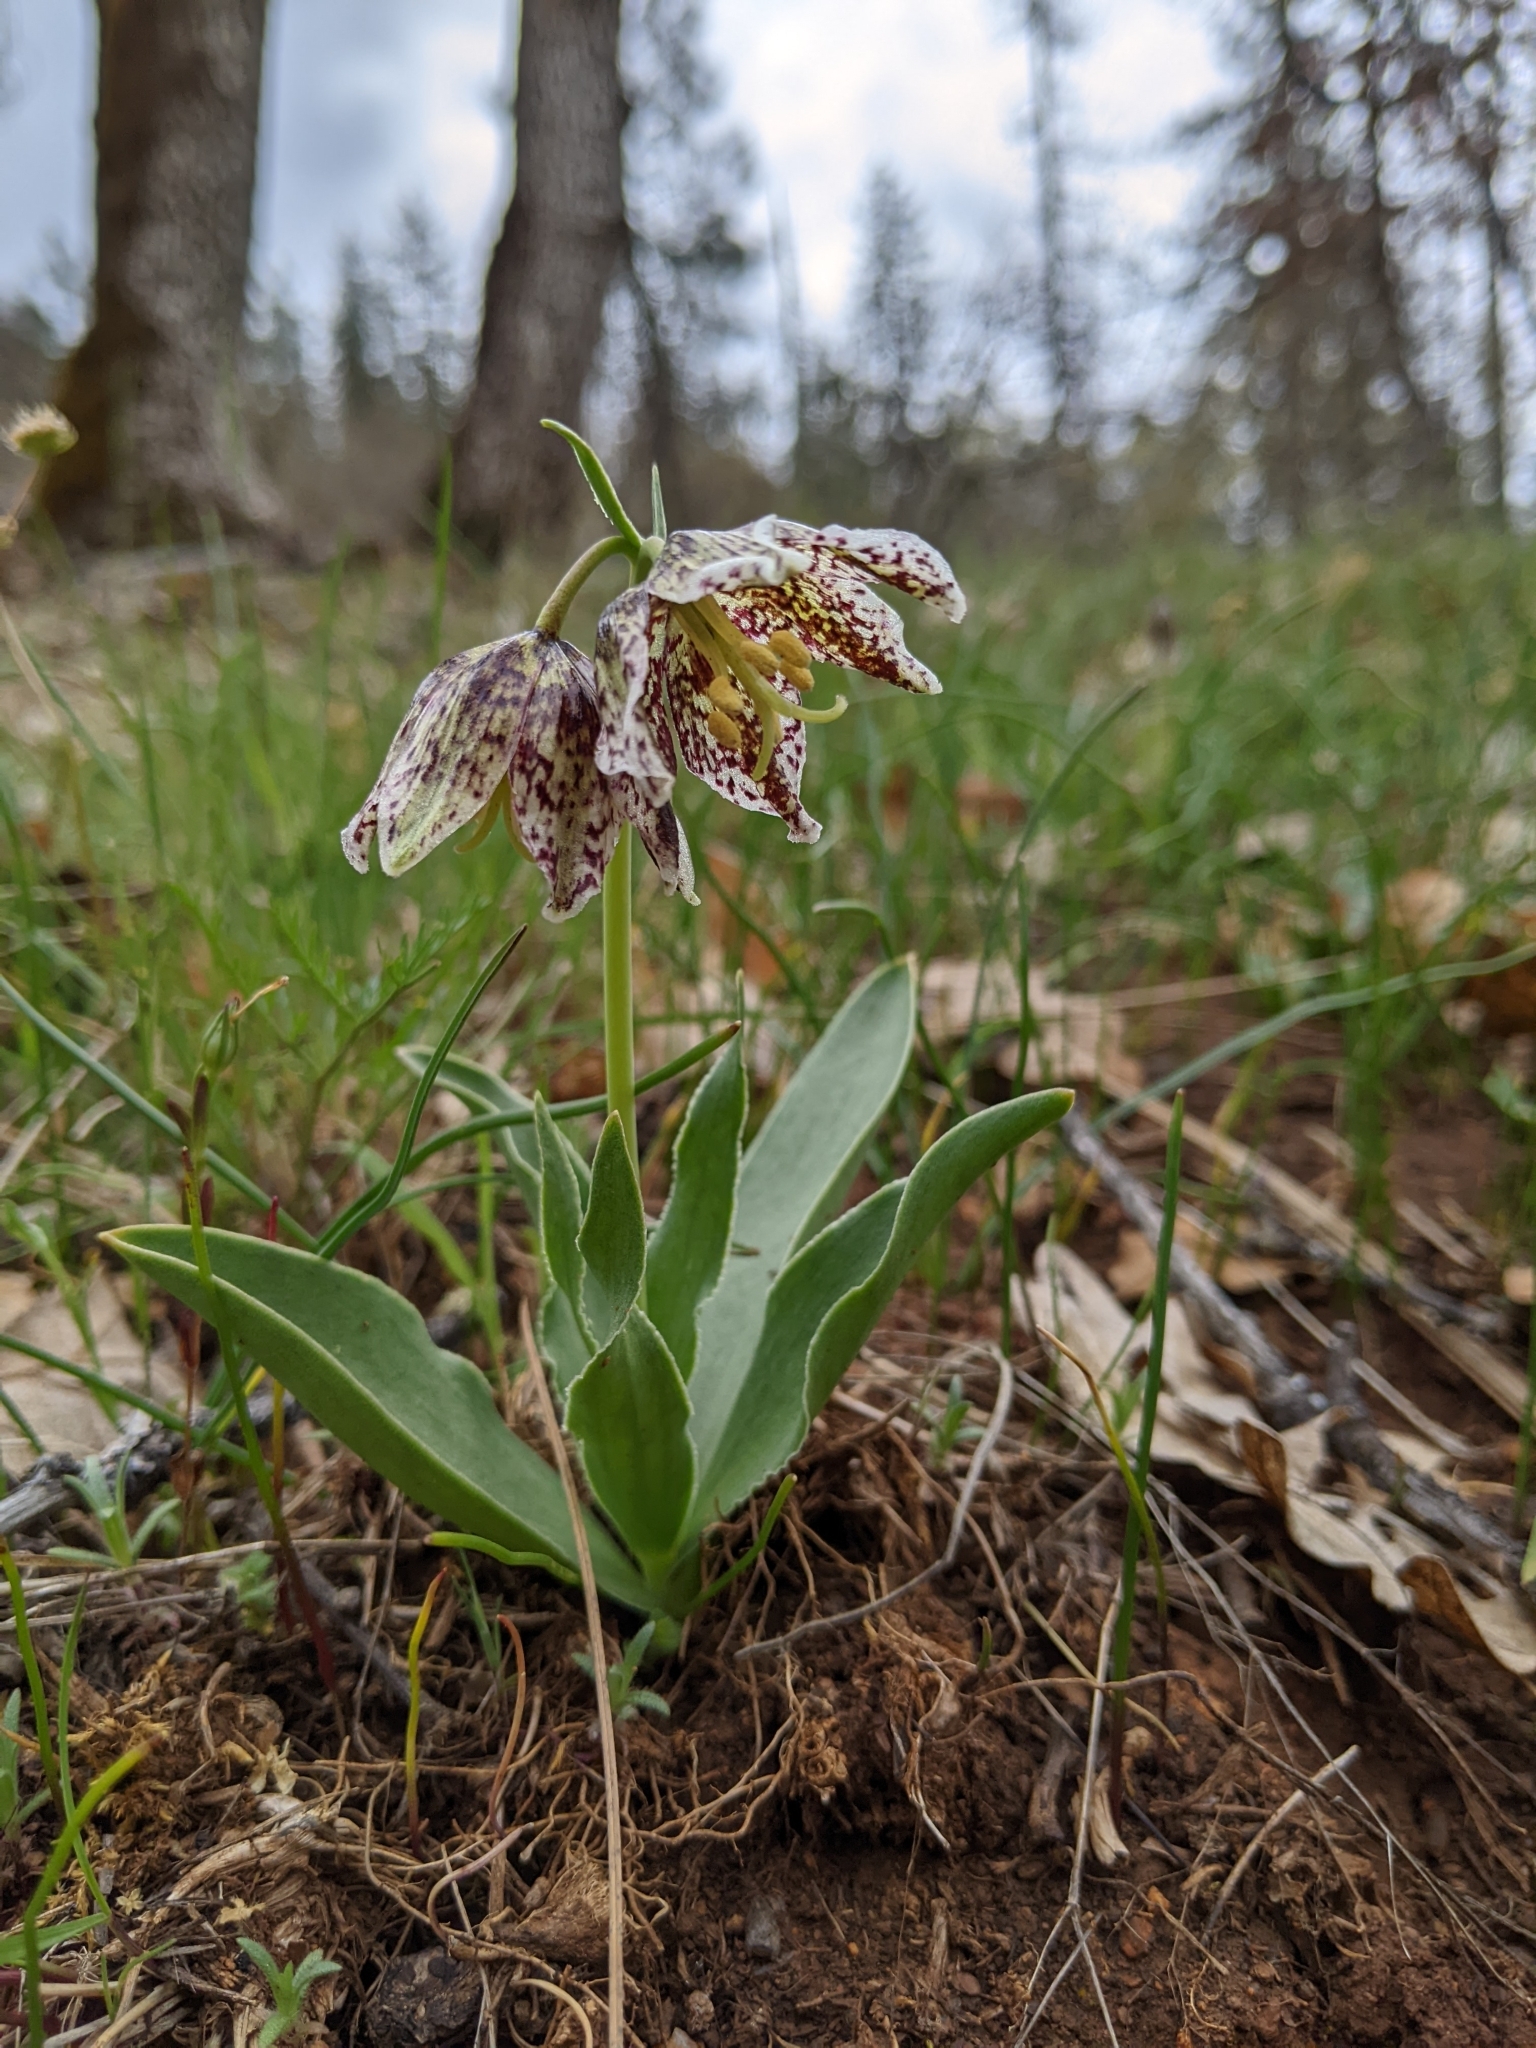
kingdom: Plantae
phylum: Tracheophyta
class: Liliopsida
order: Liliales
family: Liliaceae
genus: Fritillaria
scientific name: Fritillaria purdyi
